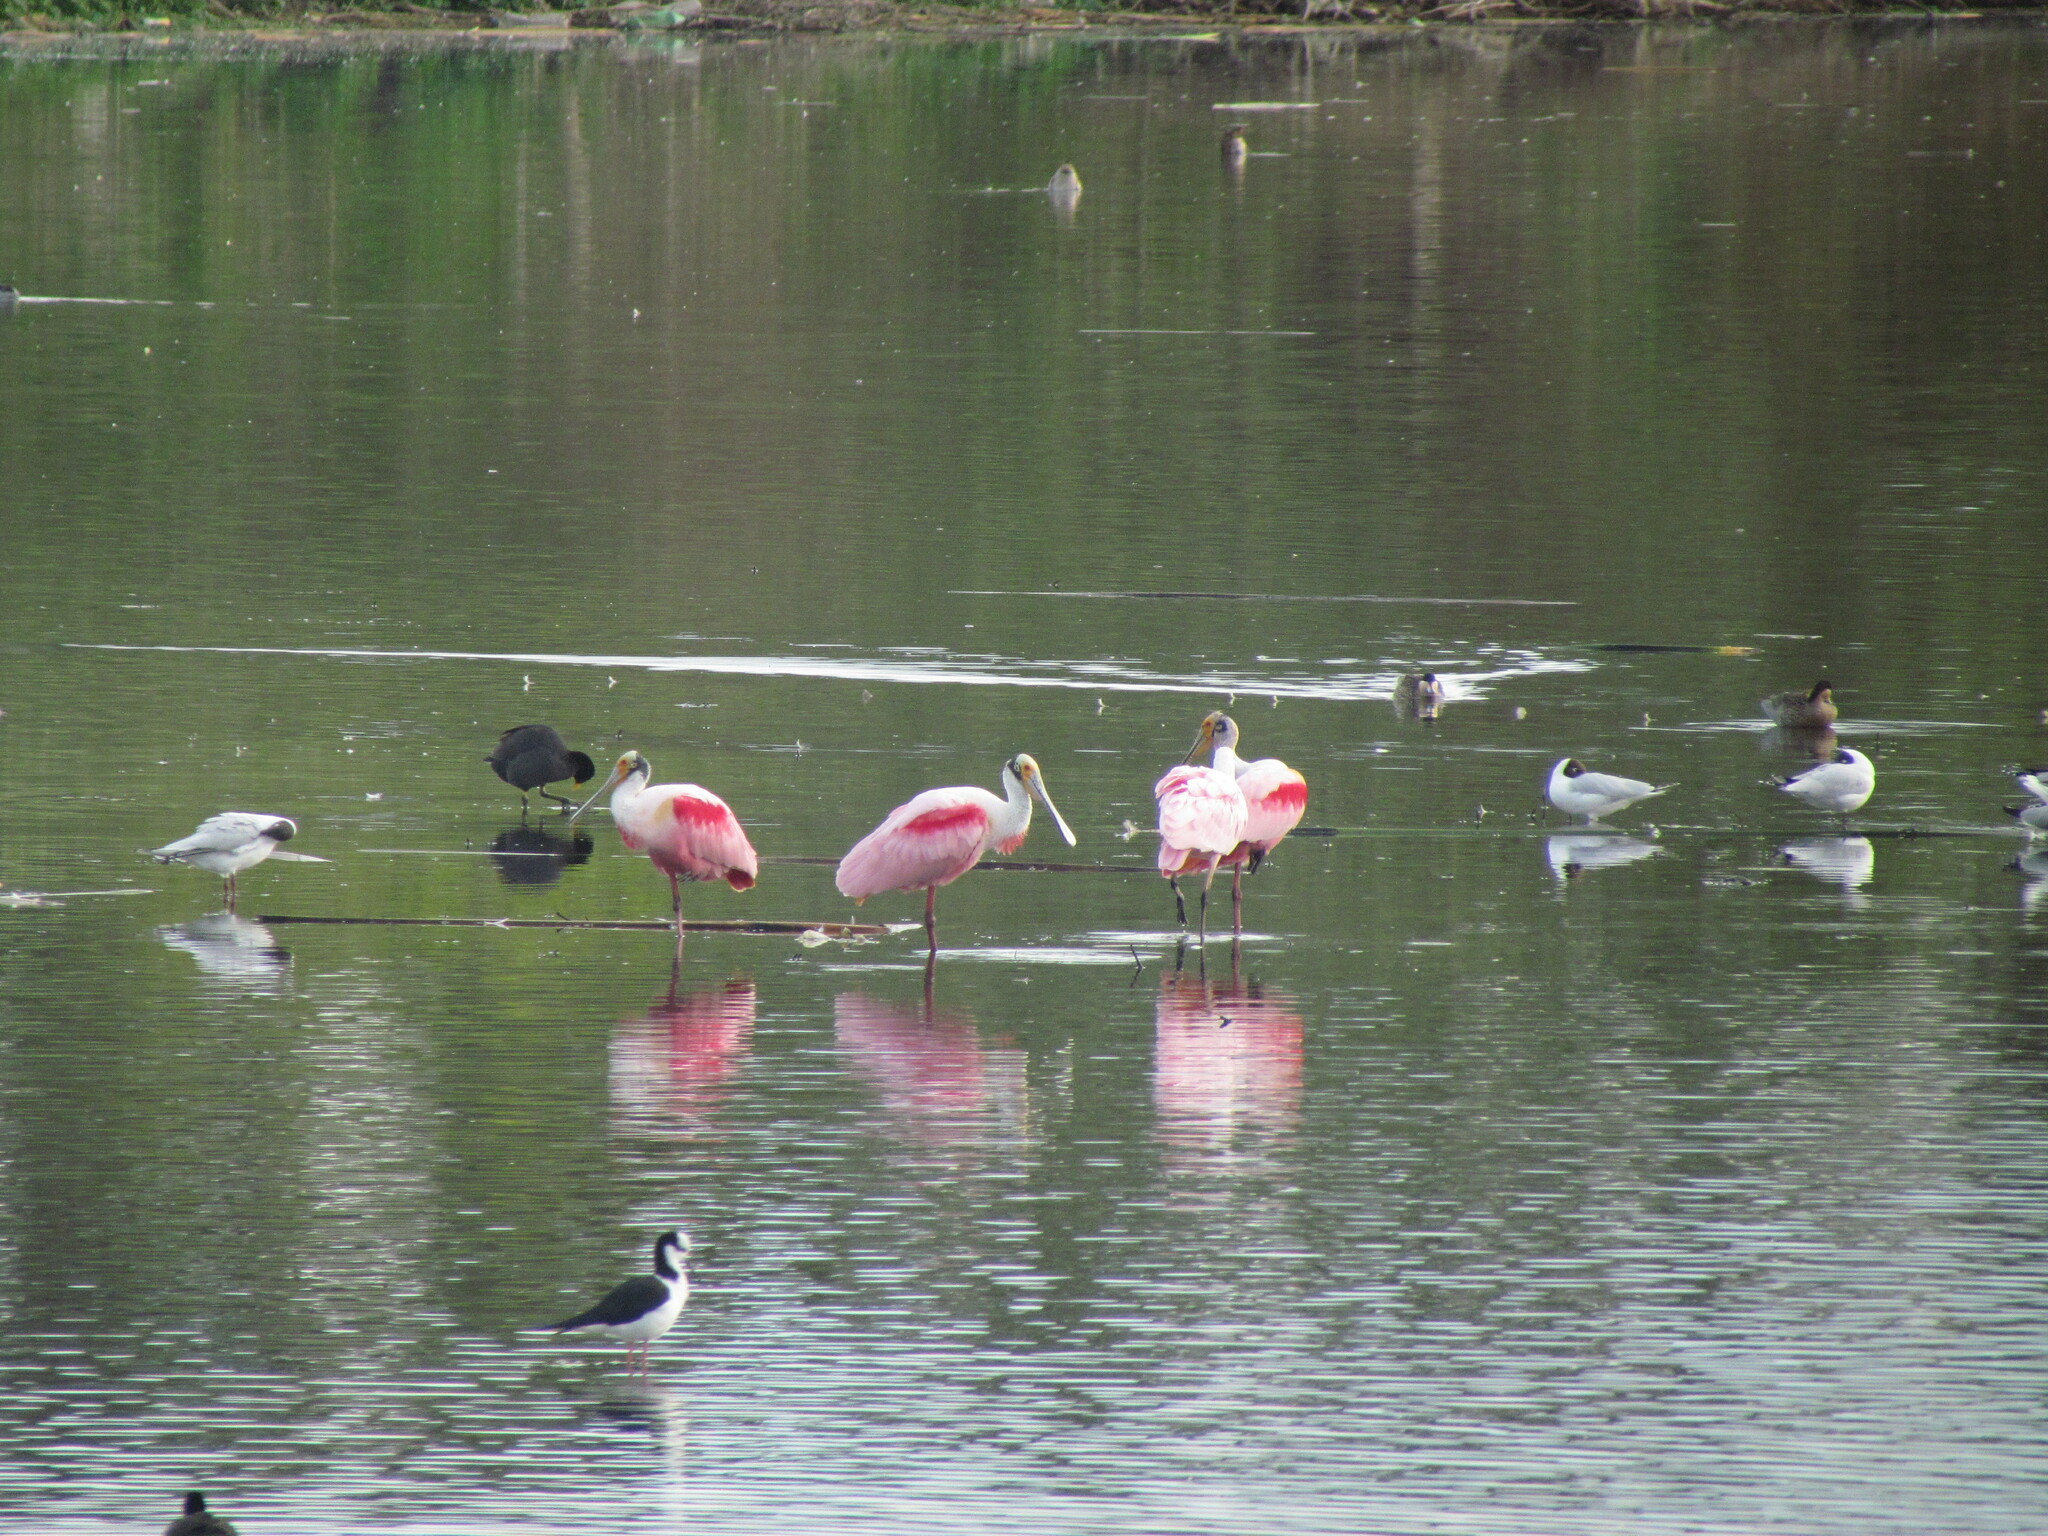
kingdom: Animalia
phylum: Chordata
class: Aves
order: Pelecaniformes
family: Threskiornithidae
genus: Platalea
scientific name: Platalea ajaja
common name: Roseate spoonbill
